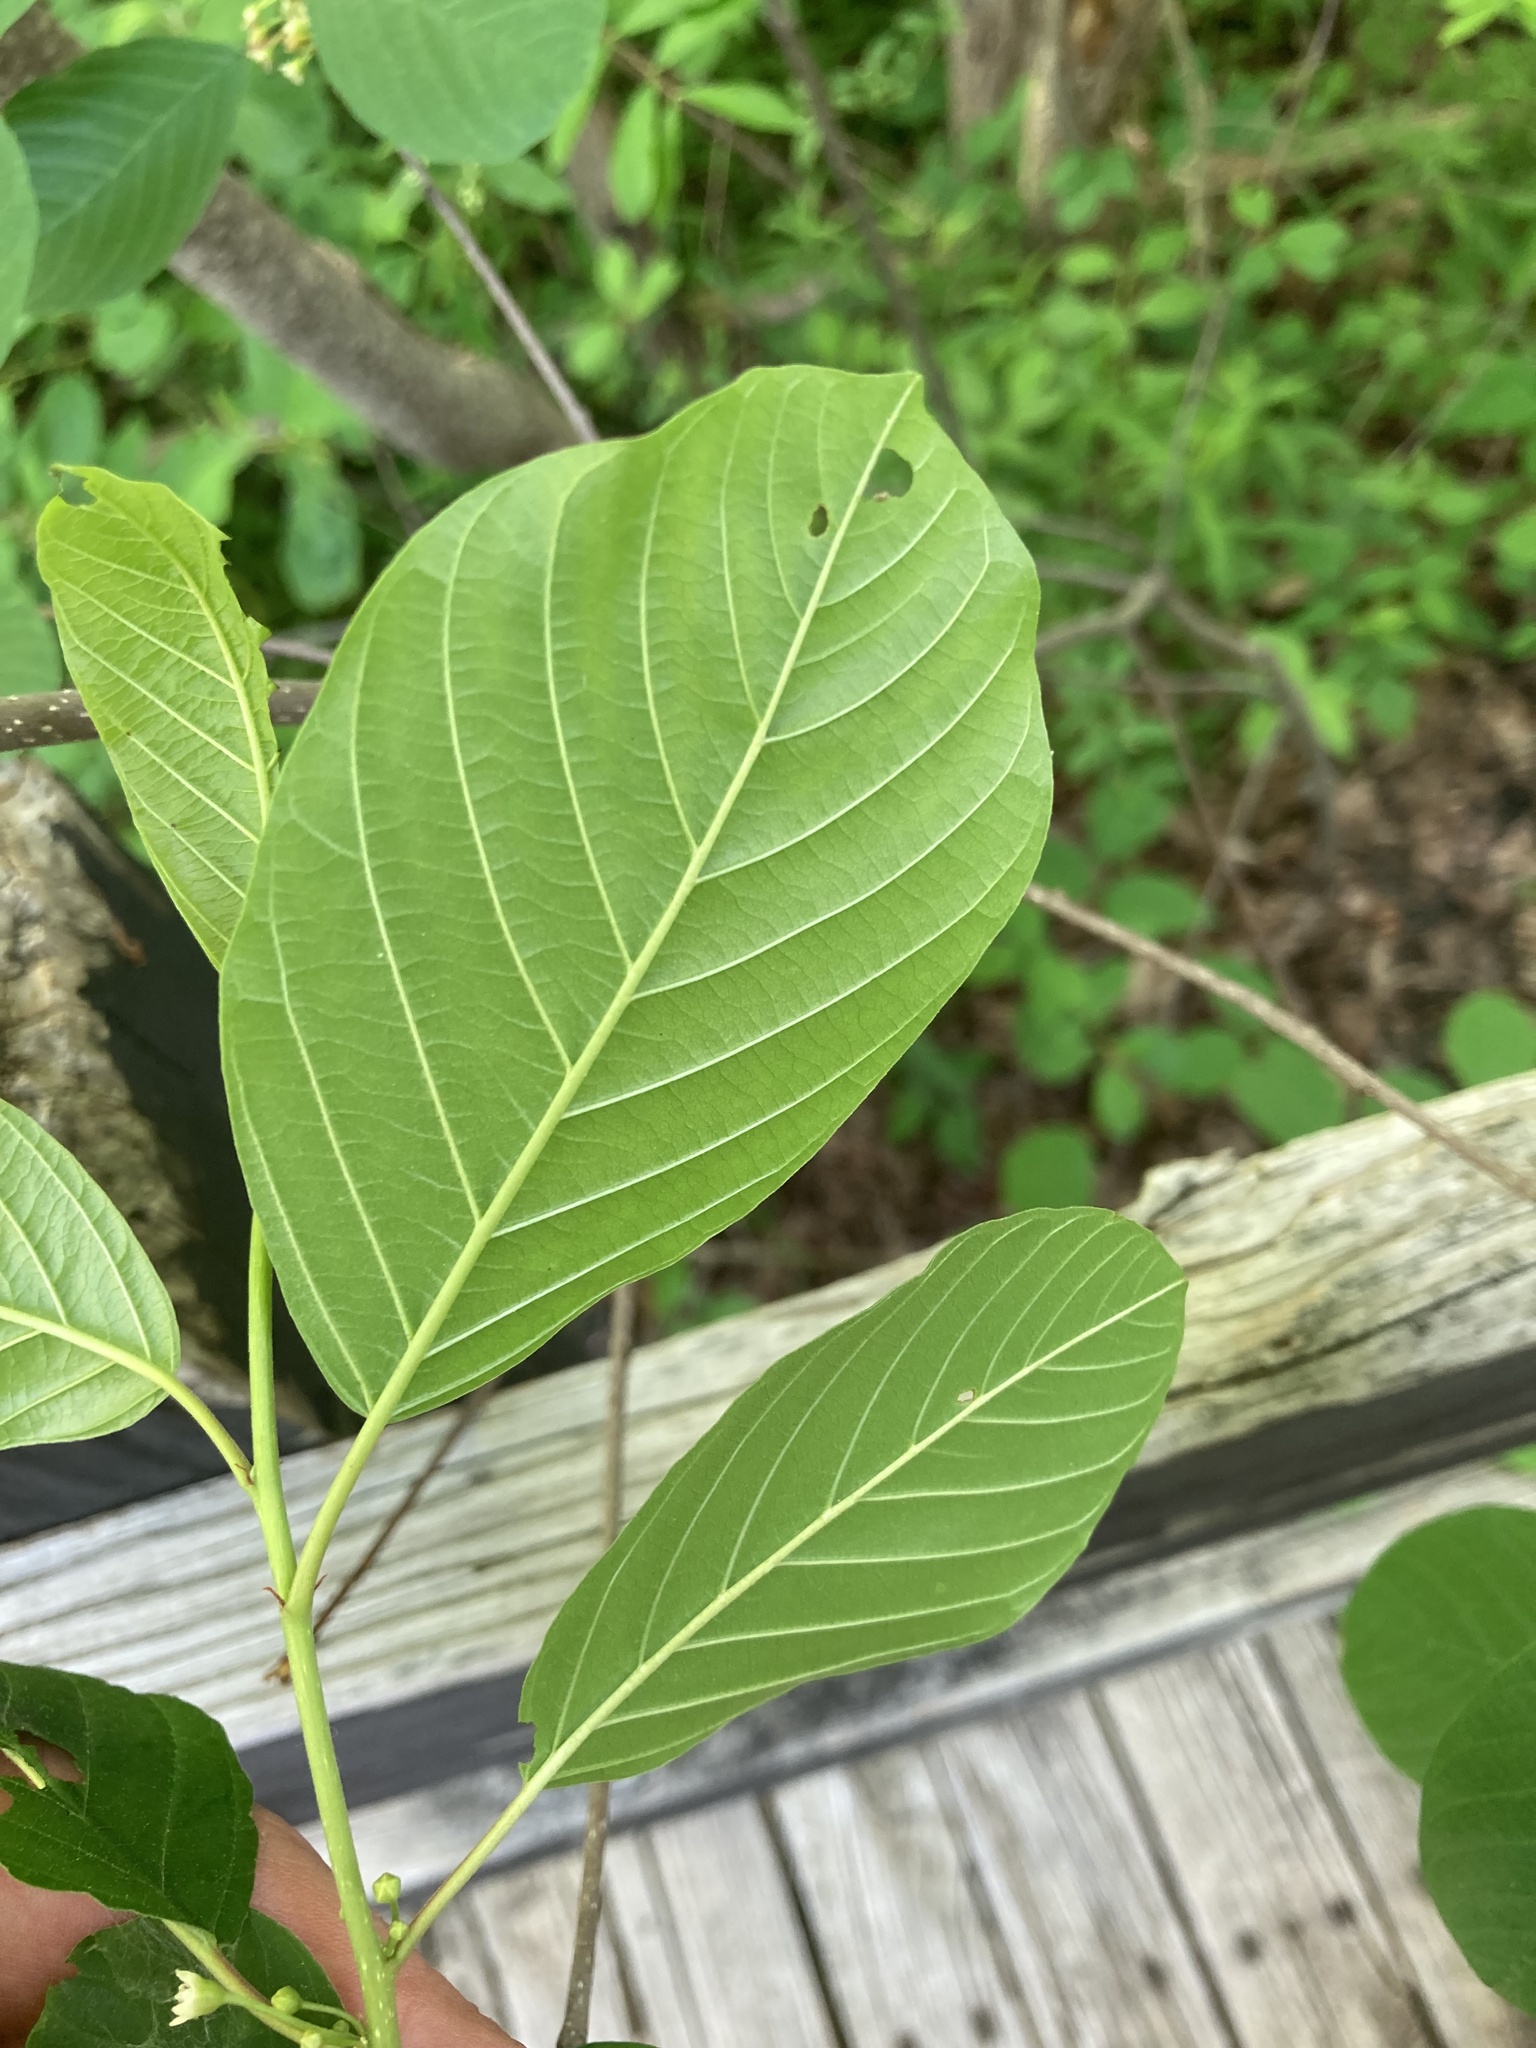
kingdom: Plantae
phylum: Tracheophyta
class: Magnoliopsida
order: Rosales
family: Rhamnaceae
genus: Frangula
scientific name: Frangula alnus
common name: Alder buckthorn
